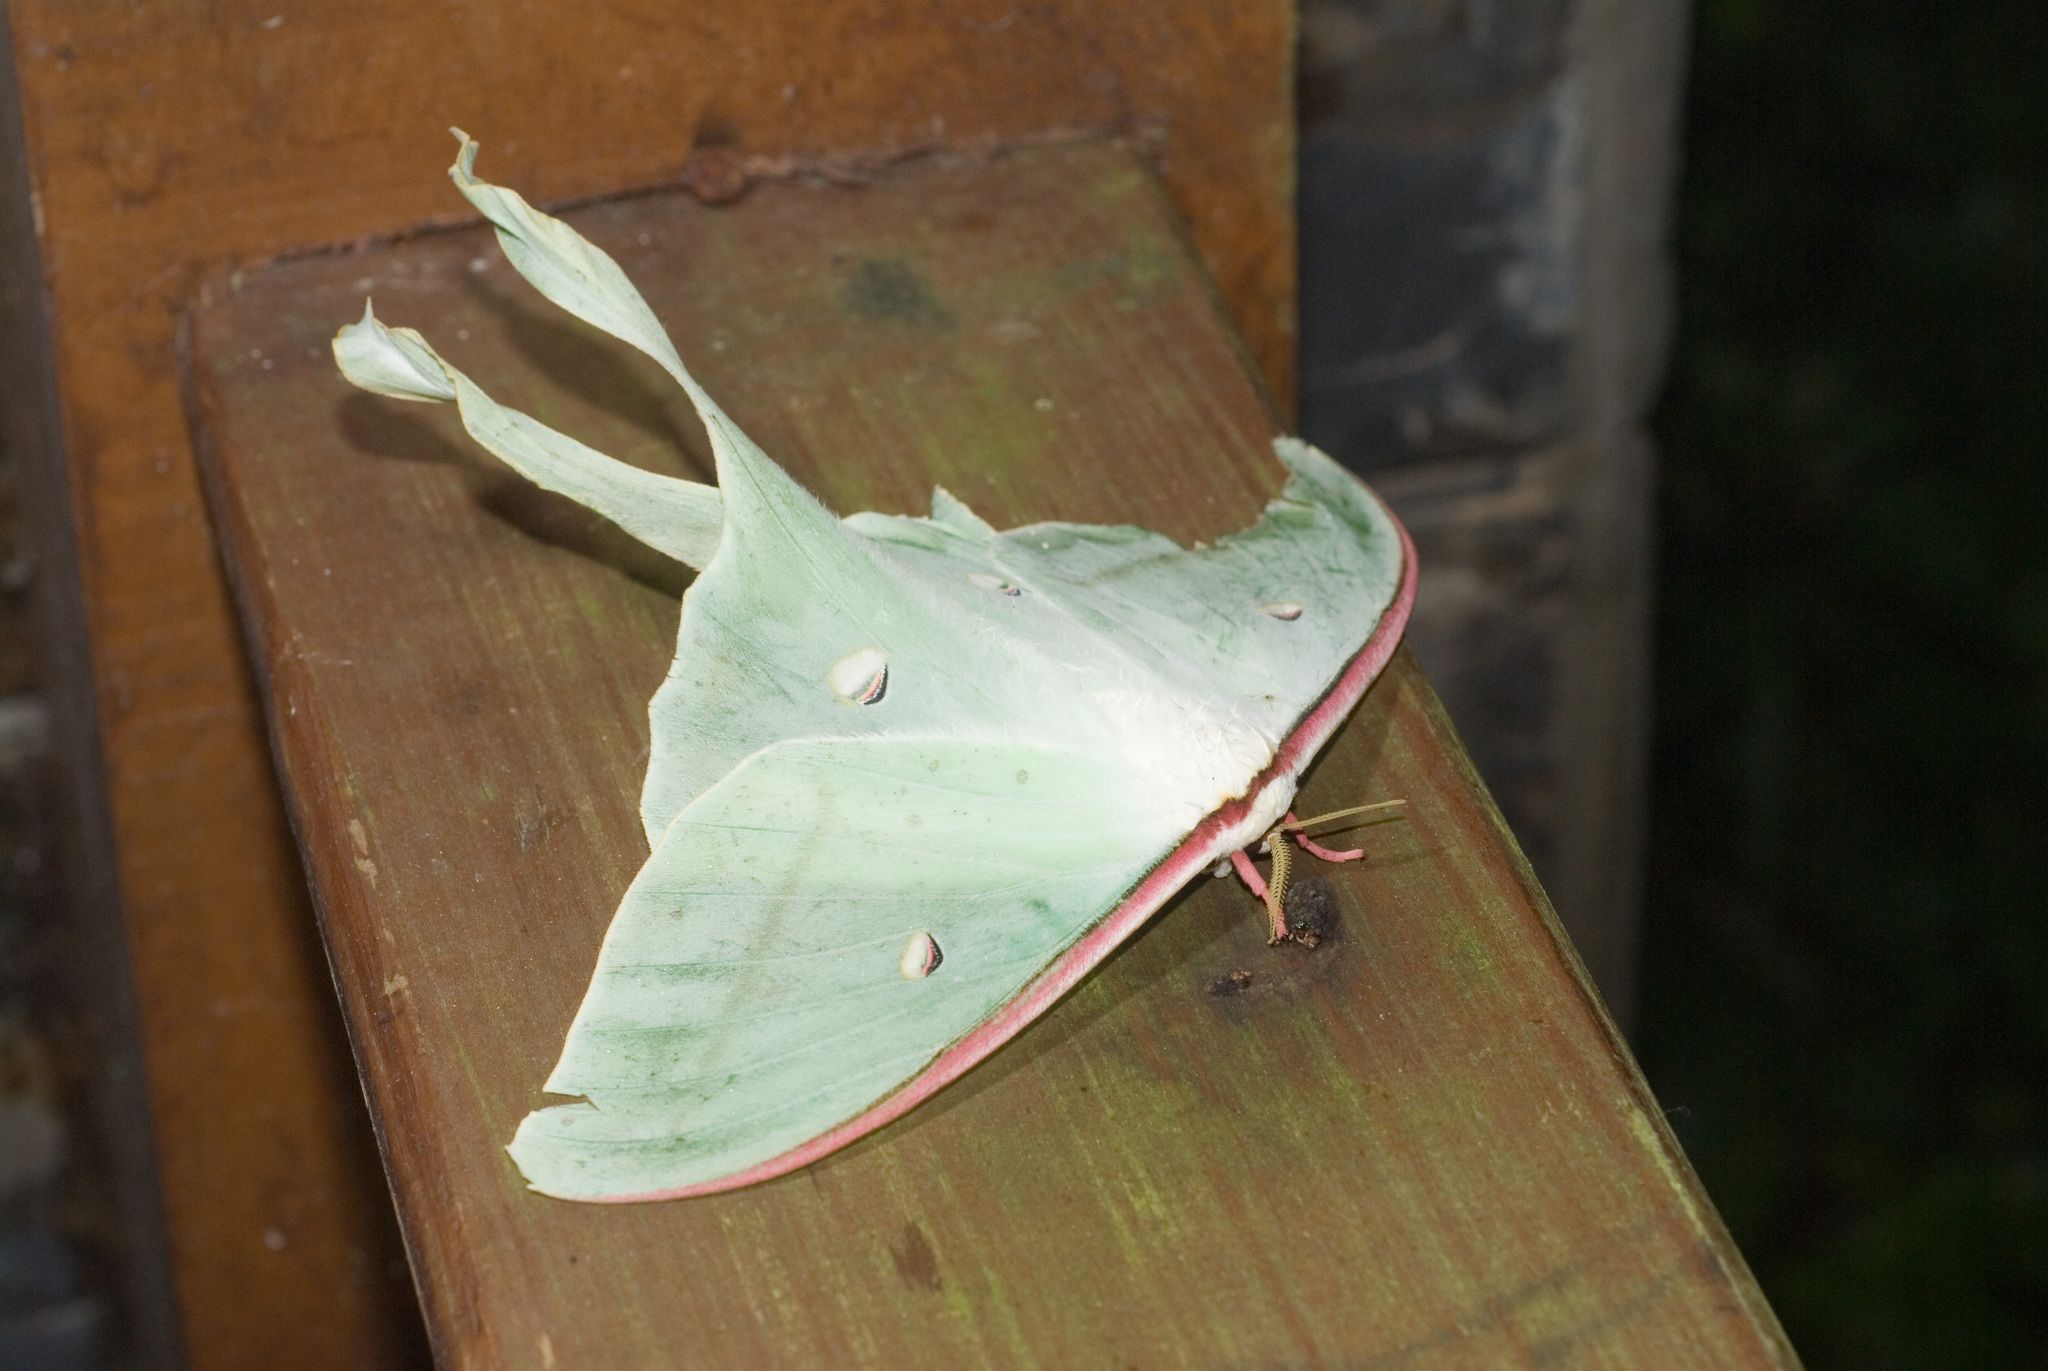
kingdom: Animalia
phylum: Arthropoda
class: Insecta
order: Lepidoptera
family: Saturniidae
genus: Actias
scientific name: Actias ningpoana
